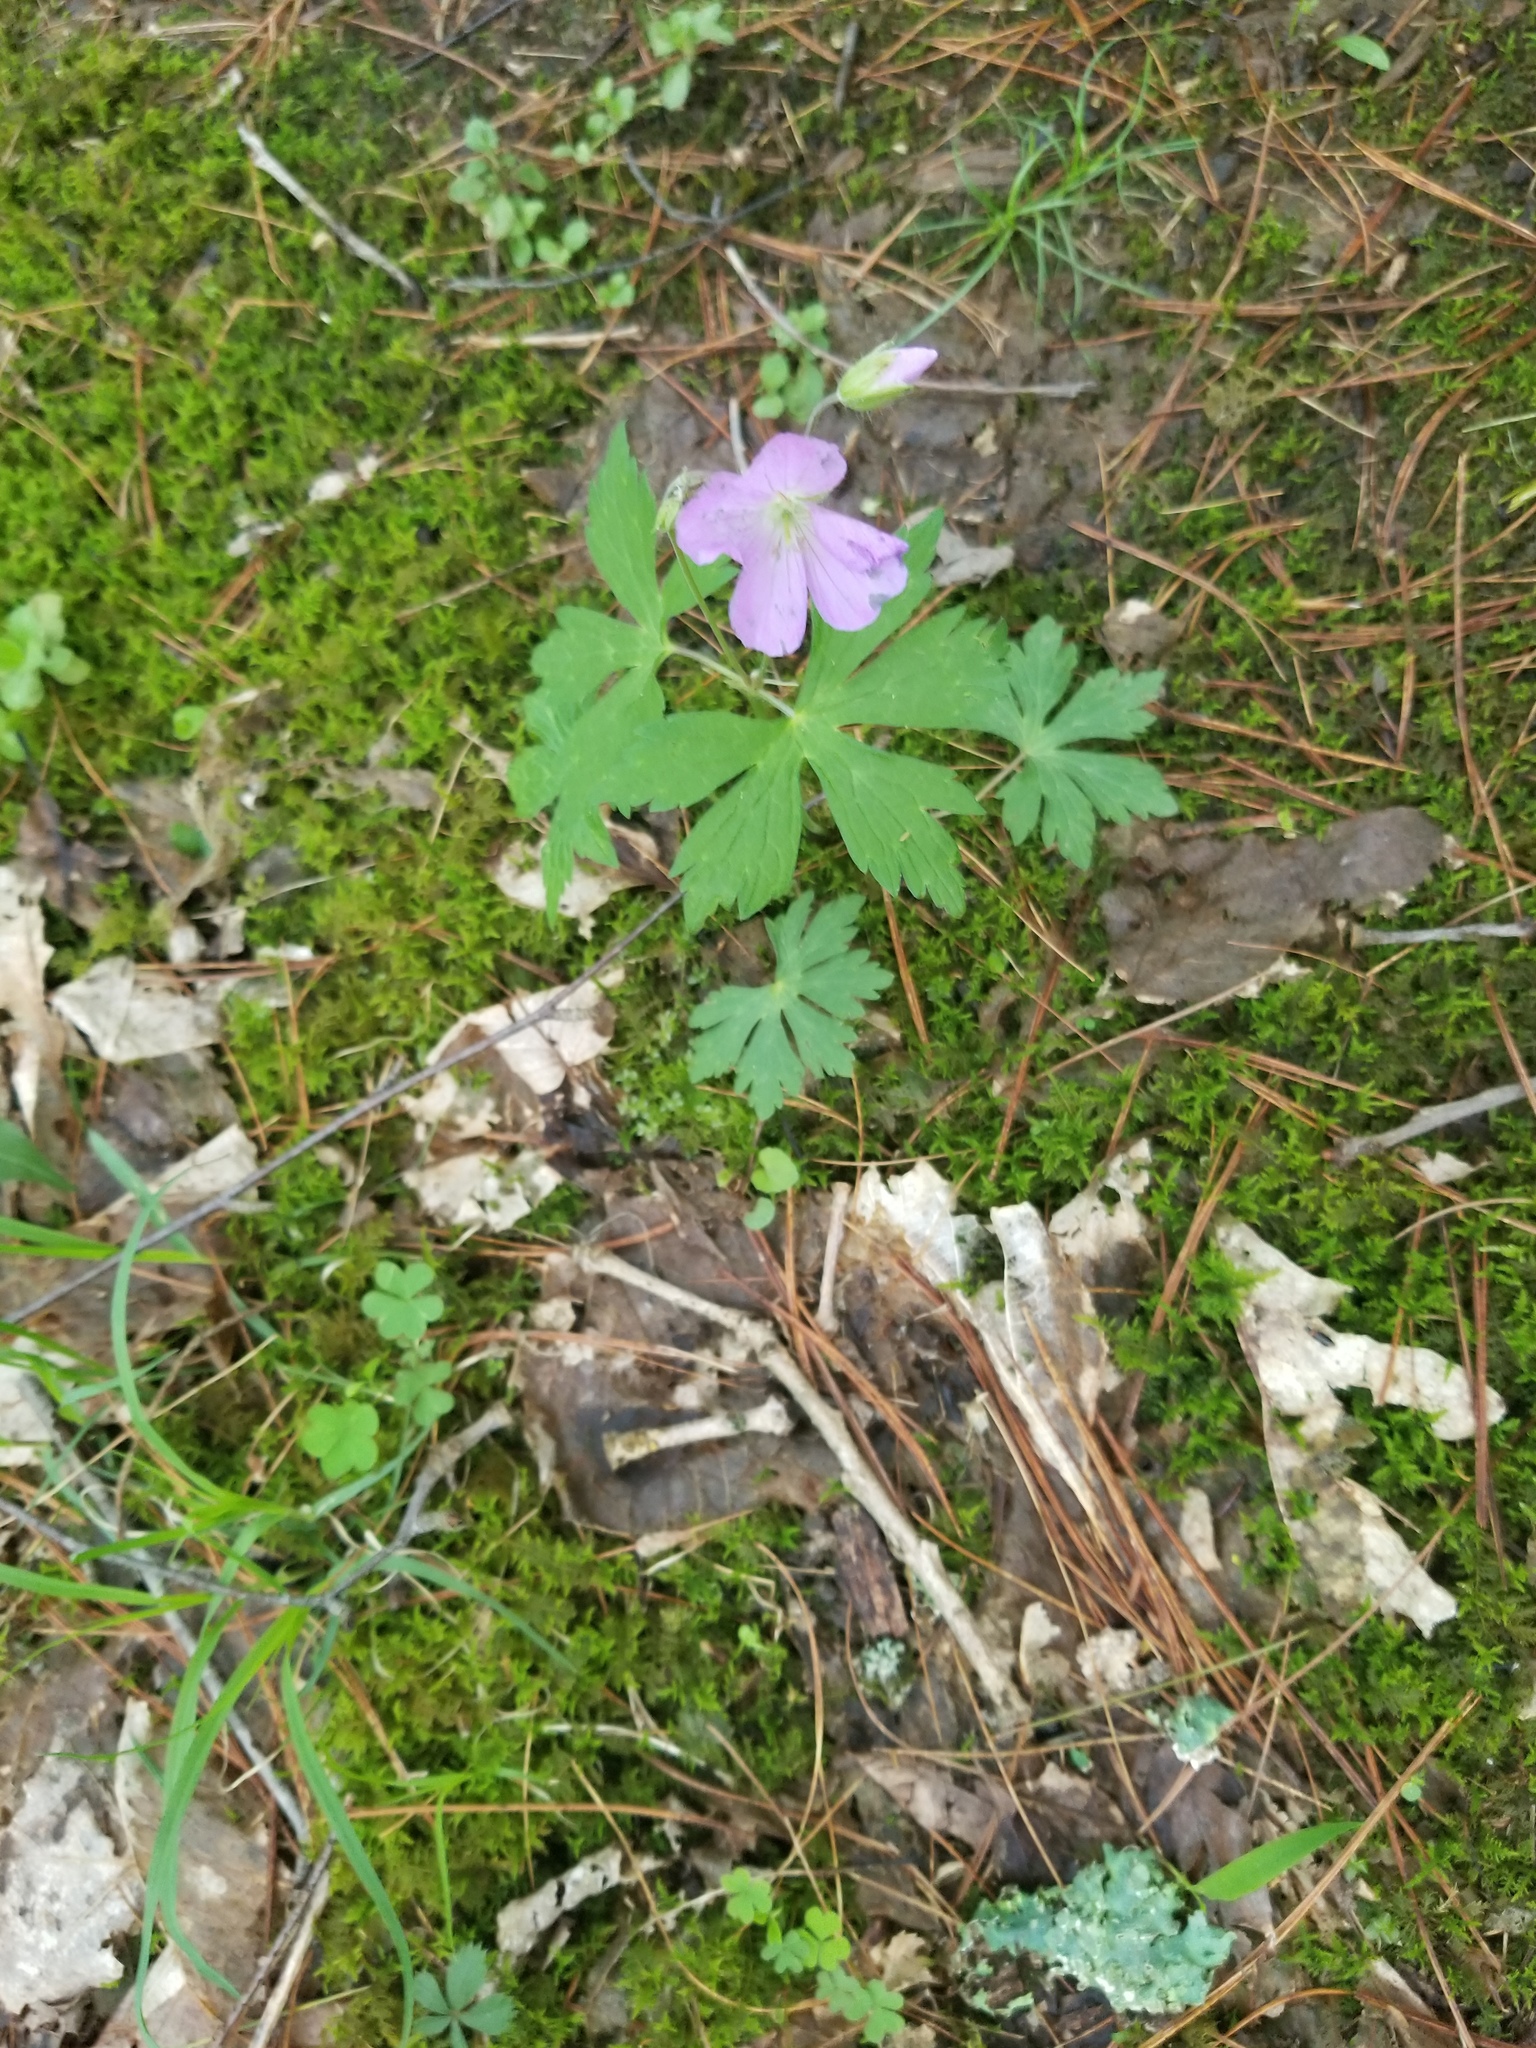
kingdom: Plantae
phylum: Tracheophyta
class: Magnoliopsida
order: Geraniales
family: Geraniaceae
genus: Geranium
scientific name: Geranium maculatum
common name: Spotted geranium
